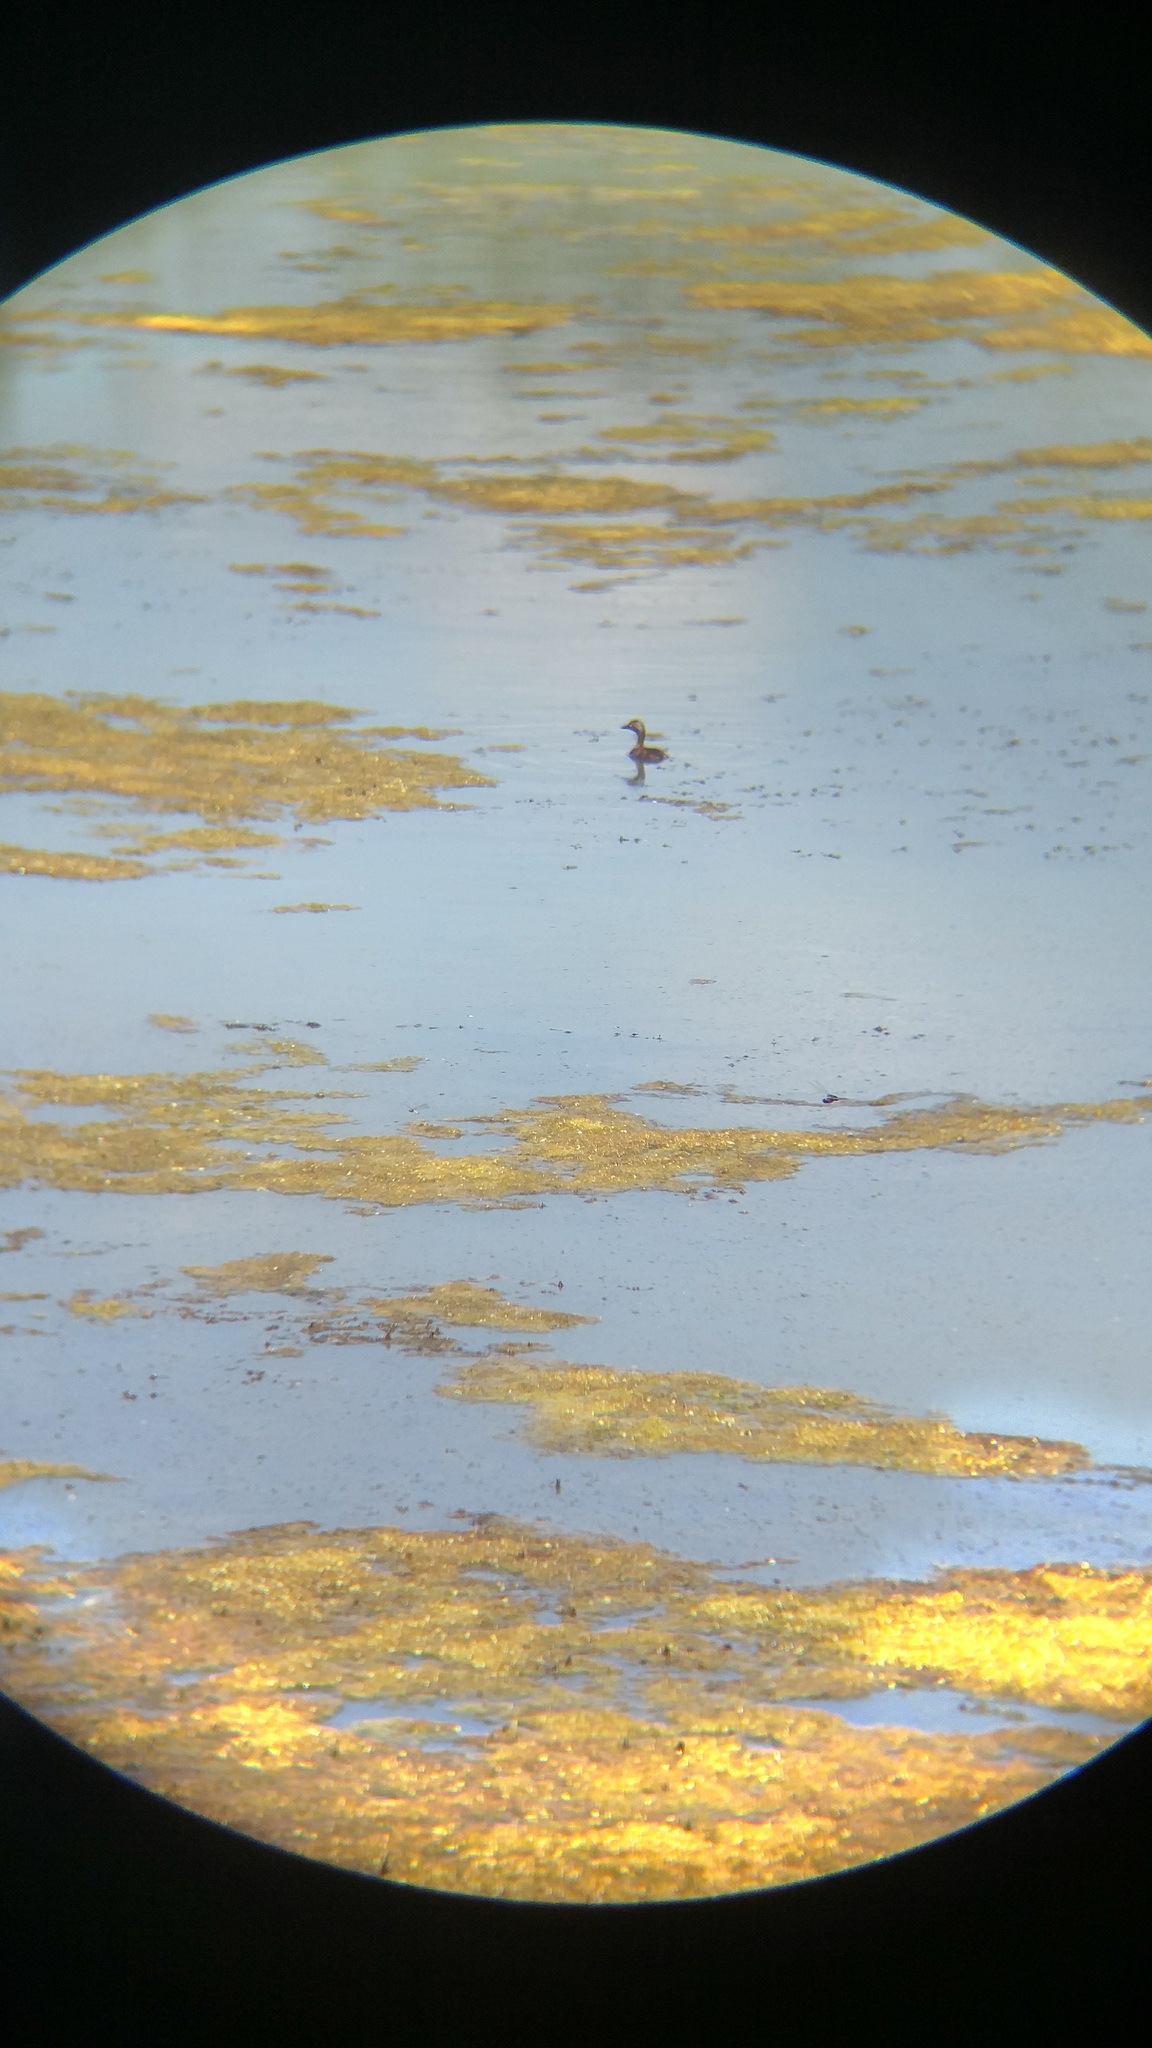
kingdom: Animalia
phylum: Chordata
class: Aves
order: Podicipediformes
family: Podicipedidae
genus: Tachybaptus
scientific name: Tachybaptus dominicus
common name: Least grebe
